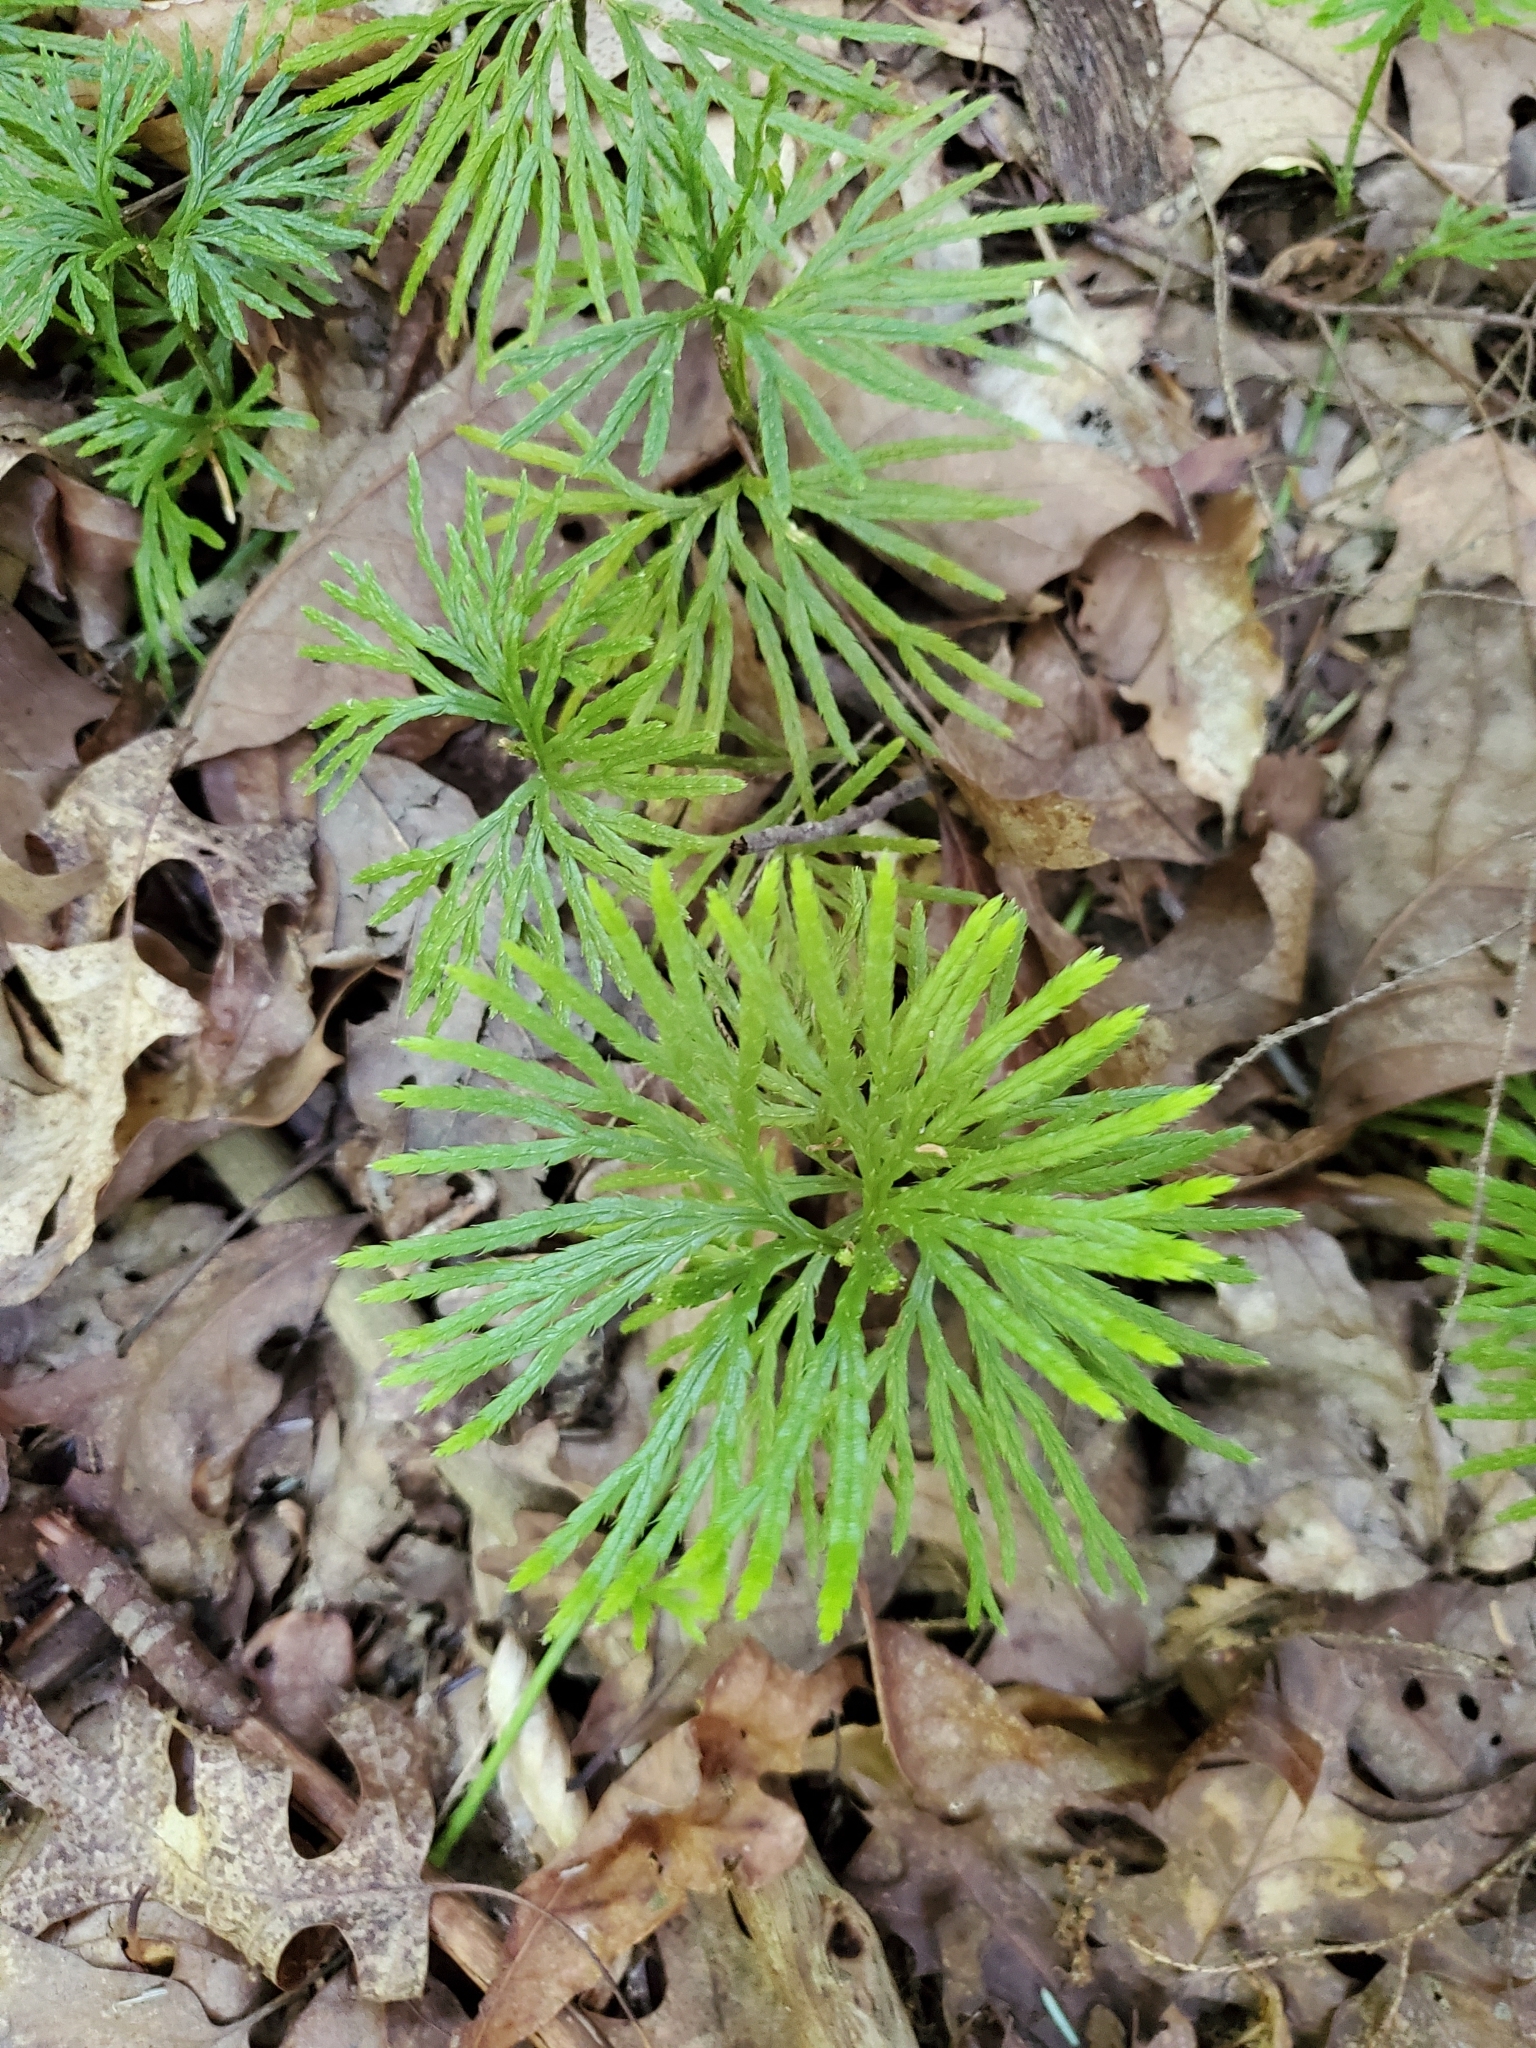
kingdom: Plantae
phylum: Tracheophyta
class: Lycopodiopsida
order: Lycopodiales
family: Lycopodiaceae
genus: Diphasiastrum
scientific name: Diphasiastrum digitatum
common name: Southern running-pine
